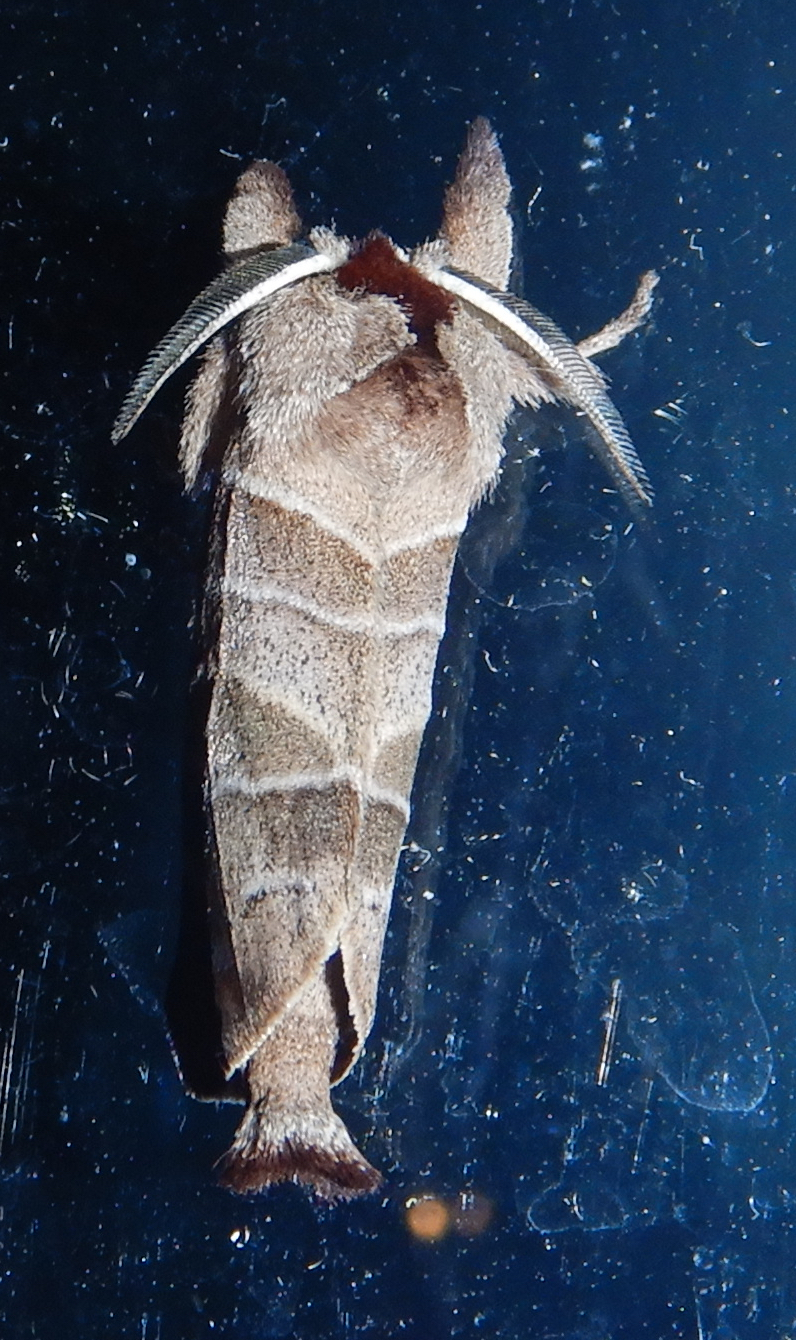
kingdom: Animalia
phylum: Arthropoda
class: Insecta
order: Lepidoptera
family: Notodontidae
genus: Clostera
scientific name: Clostera albosigma
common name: Sigmoid prominent
